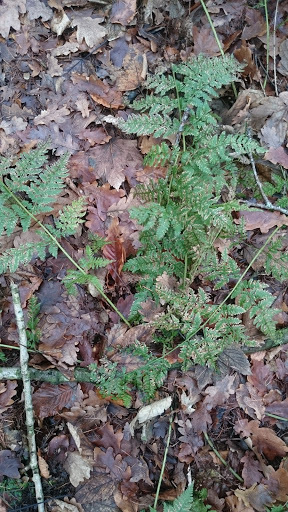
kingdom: Plantae
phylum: Tracheophyta
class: Polypodiopsida
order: Polypodiales
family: Dryopteridaceae
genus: Dryopteris
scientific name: Dryopteris dilatata
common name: Broad buckler-fern
